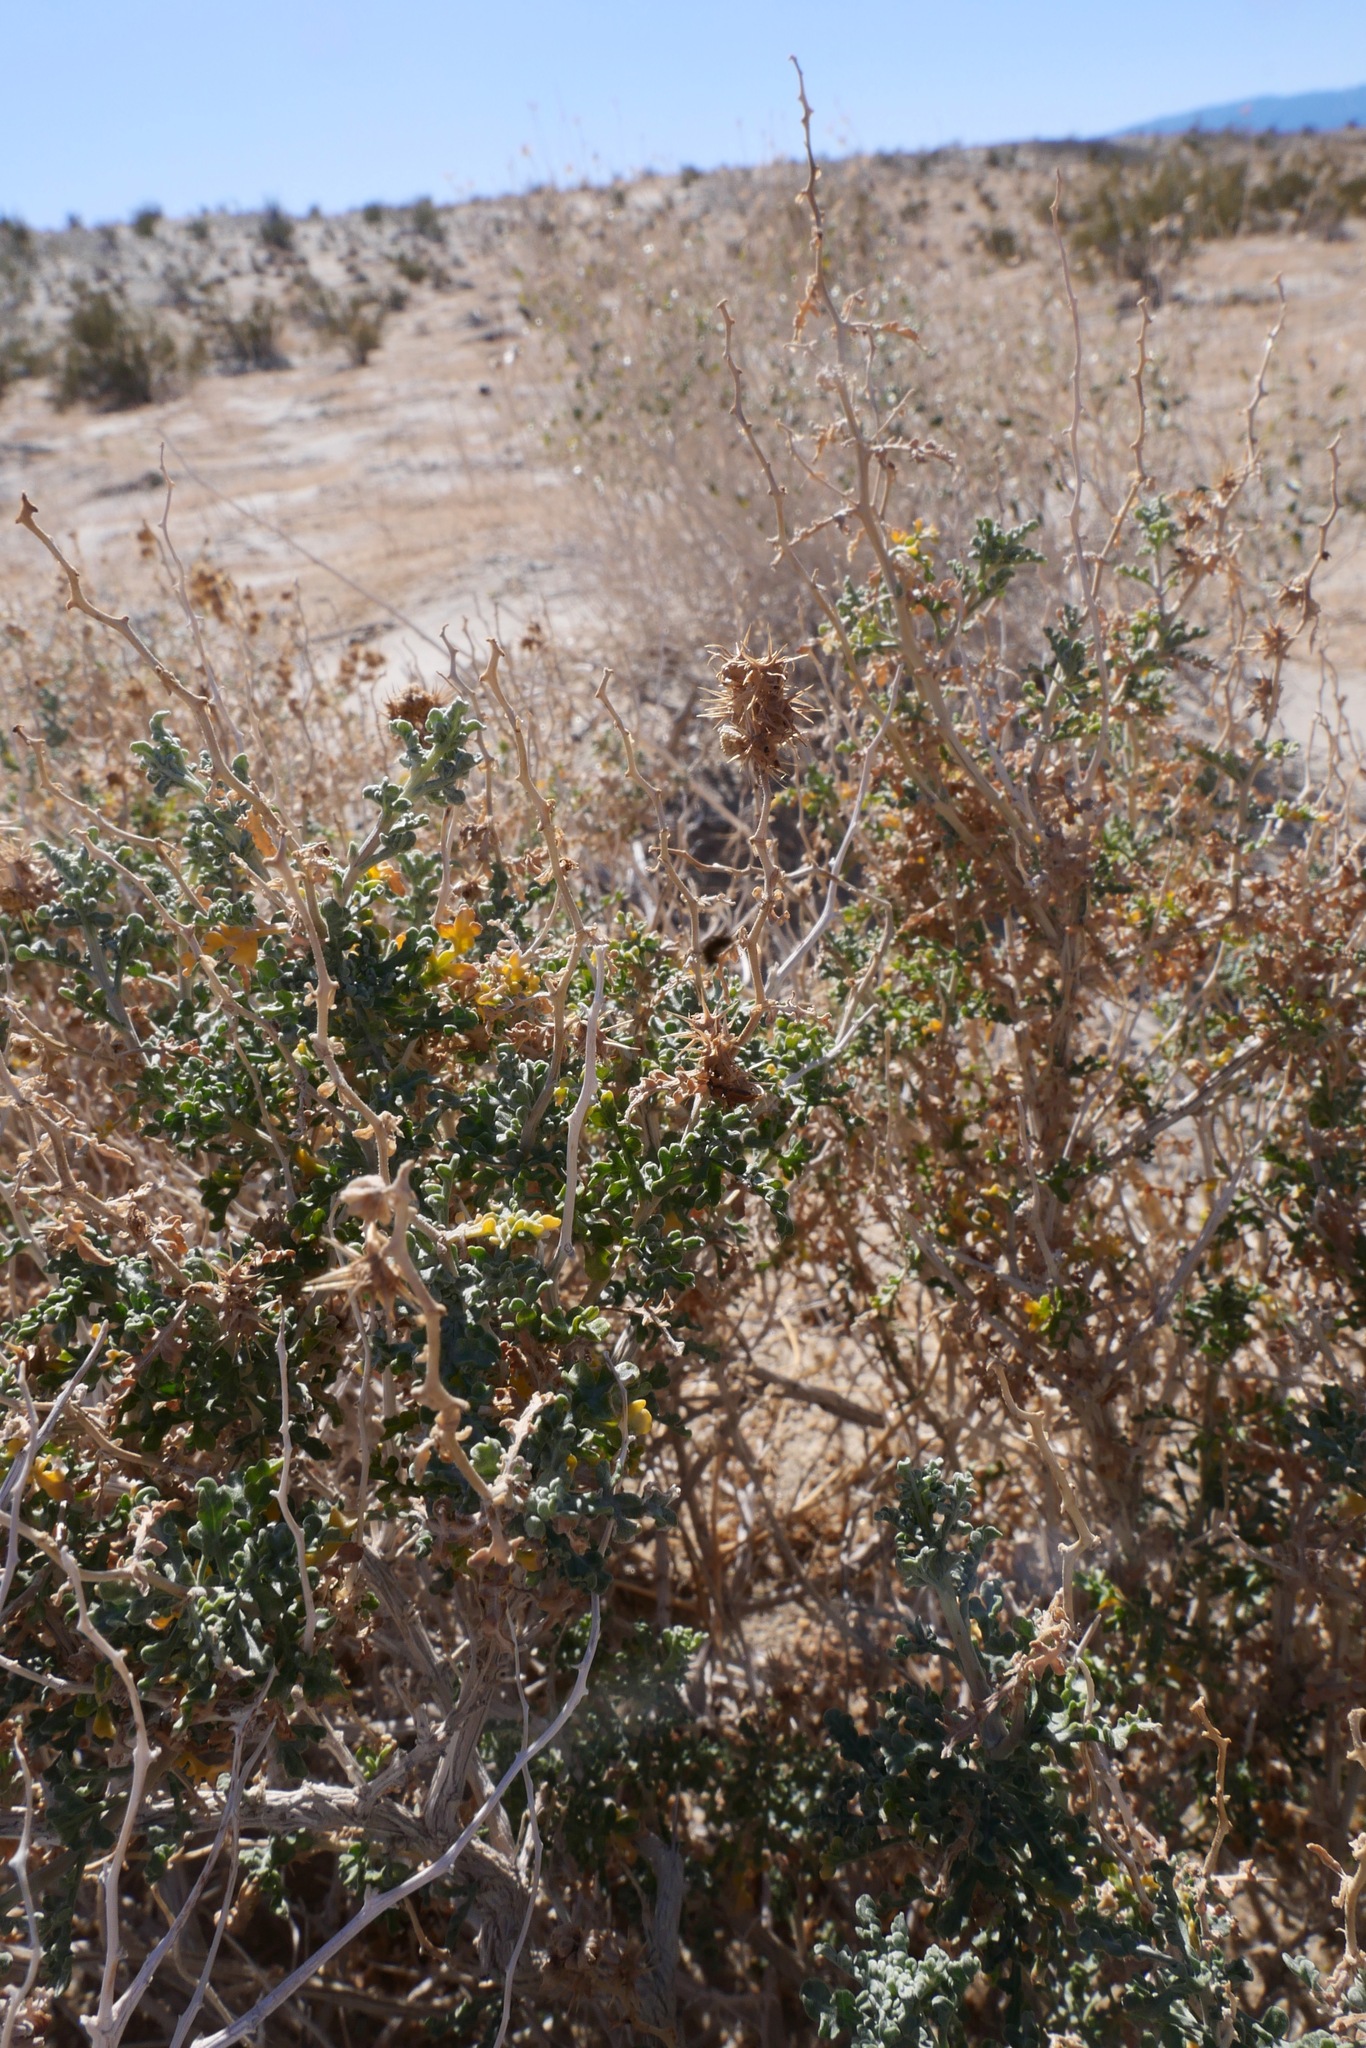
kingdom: Plantae
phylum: Tracheophyta
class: Magnoliopsida
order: Asterales
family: Asteraceae
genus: Ambrosia
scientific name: Ambrosia dumosa
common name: Bur-sage
